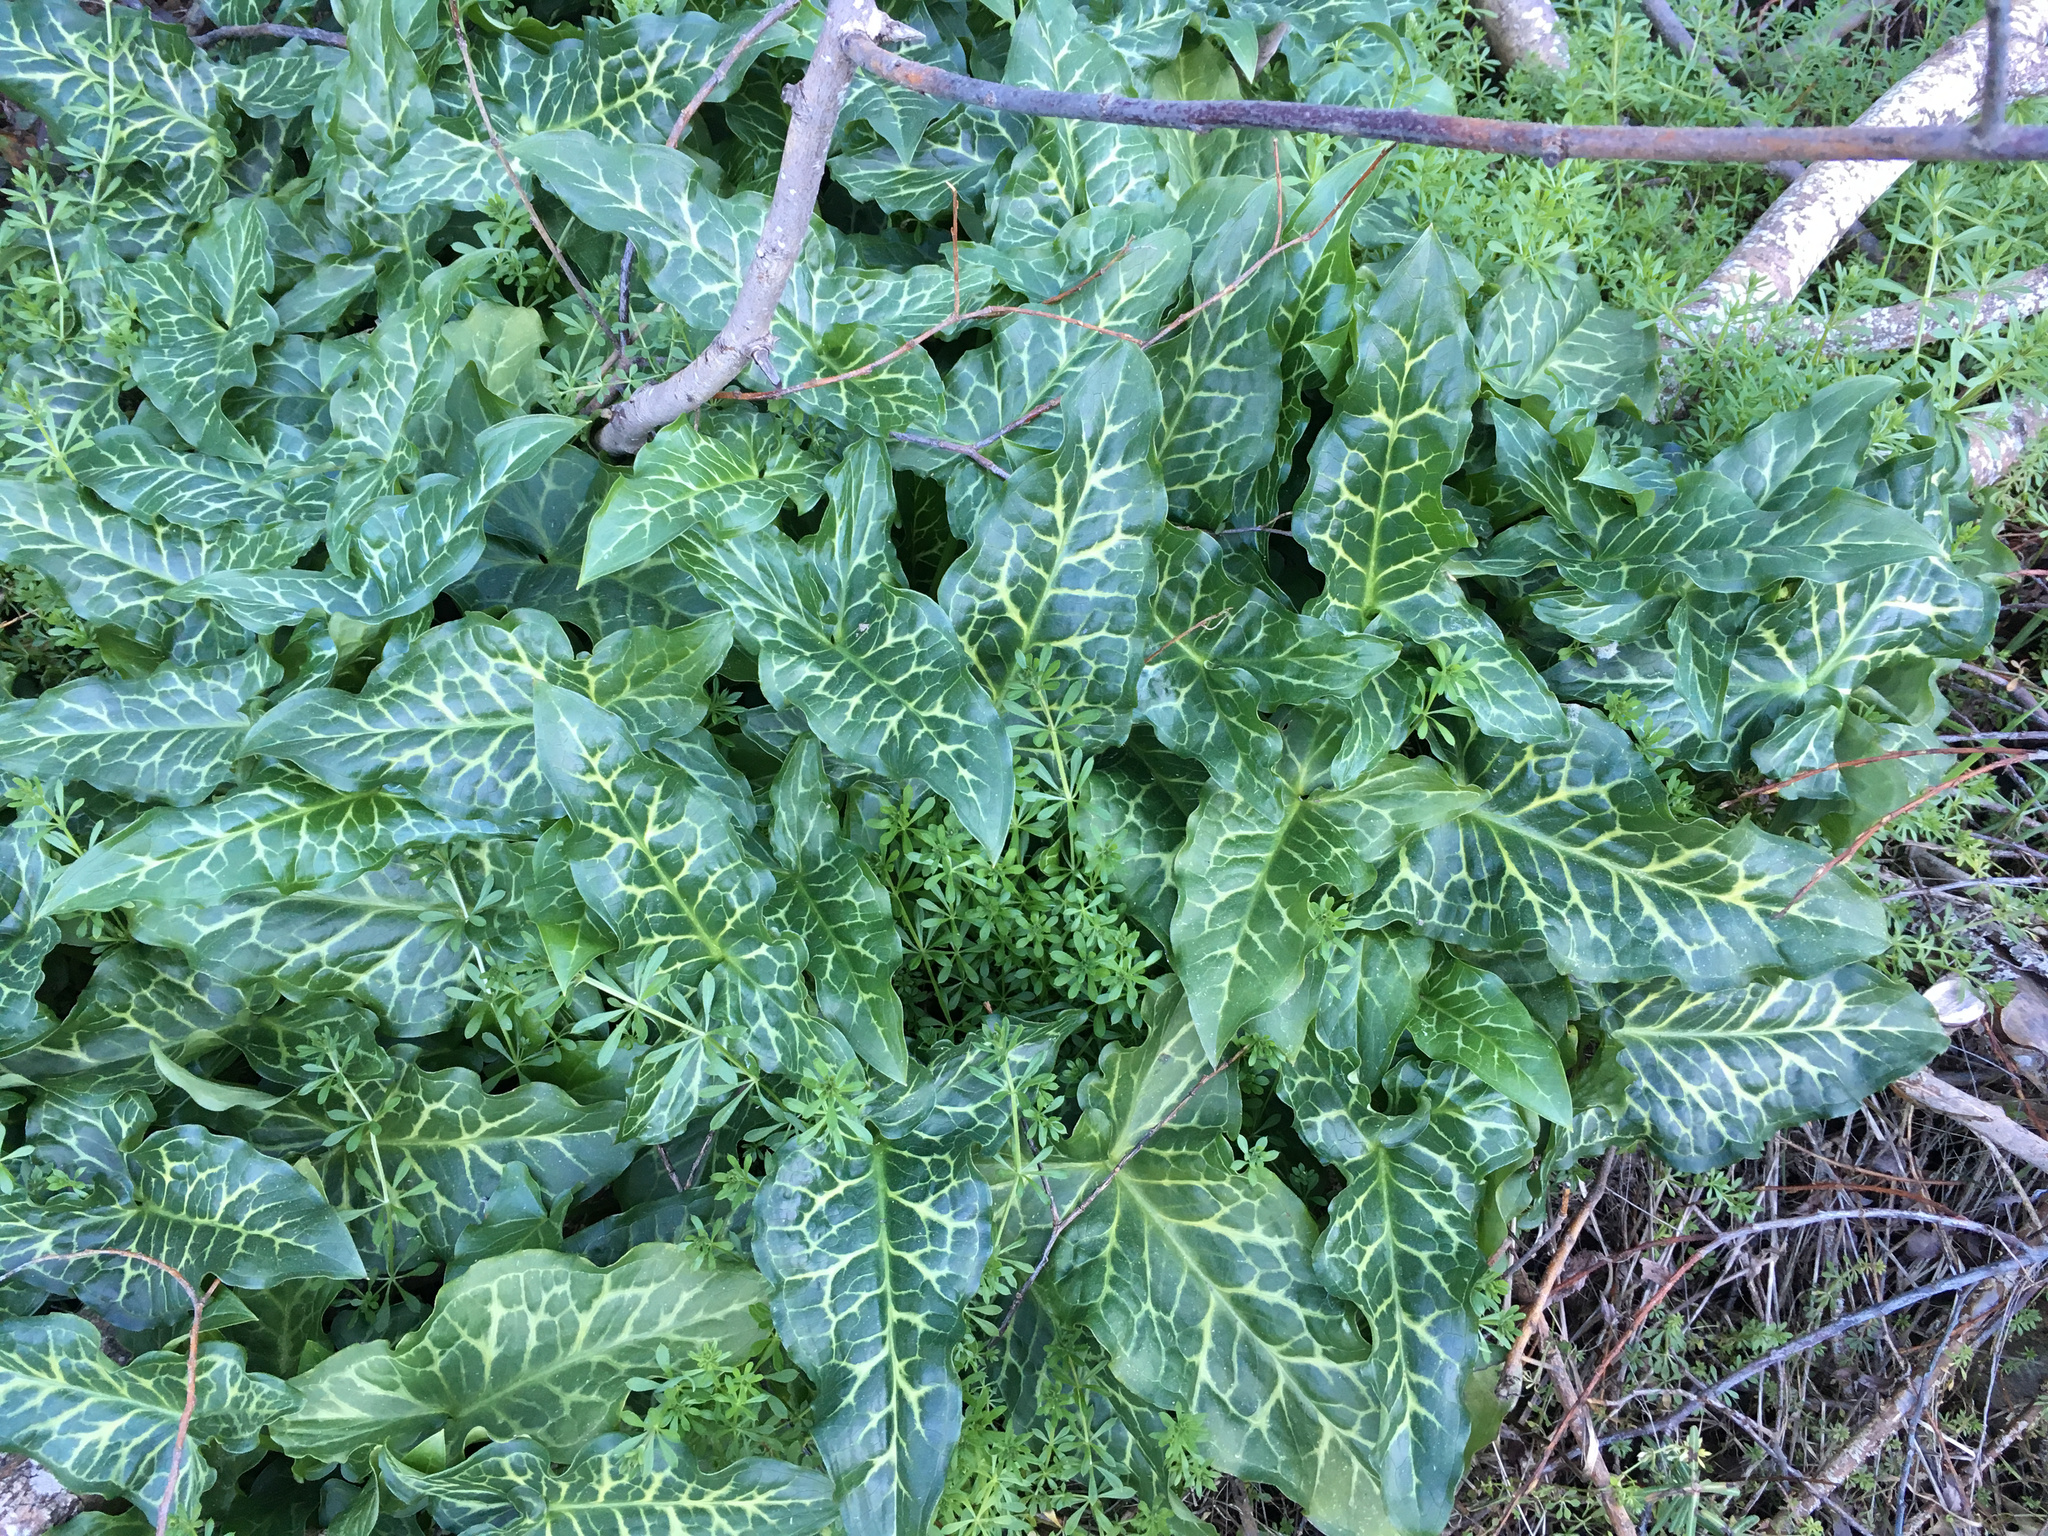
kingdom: Plantae
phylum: Tracheophyta
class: Liliopsida
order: Alismatales
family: Araceae
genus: Arum
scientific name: Arum italicum
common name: Italian lords-and-ladies
